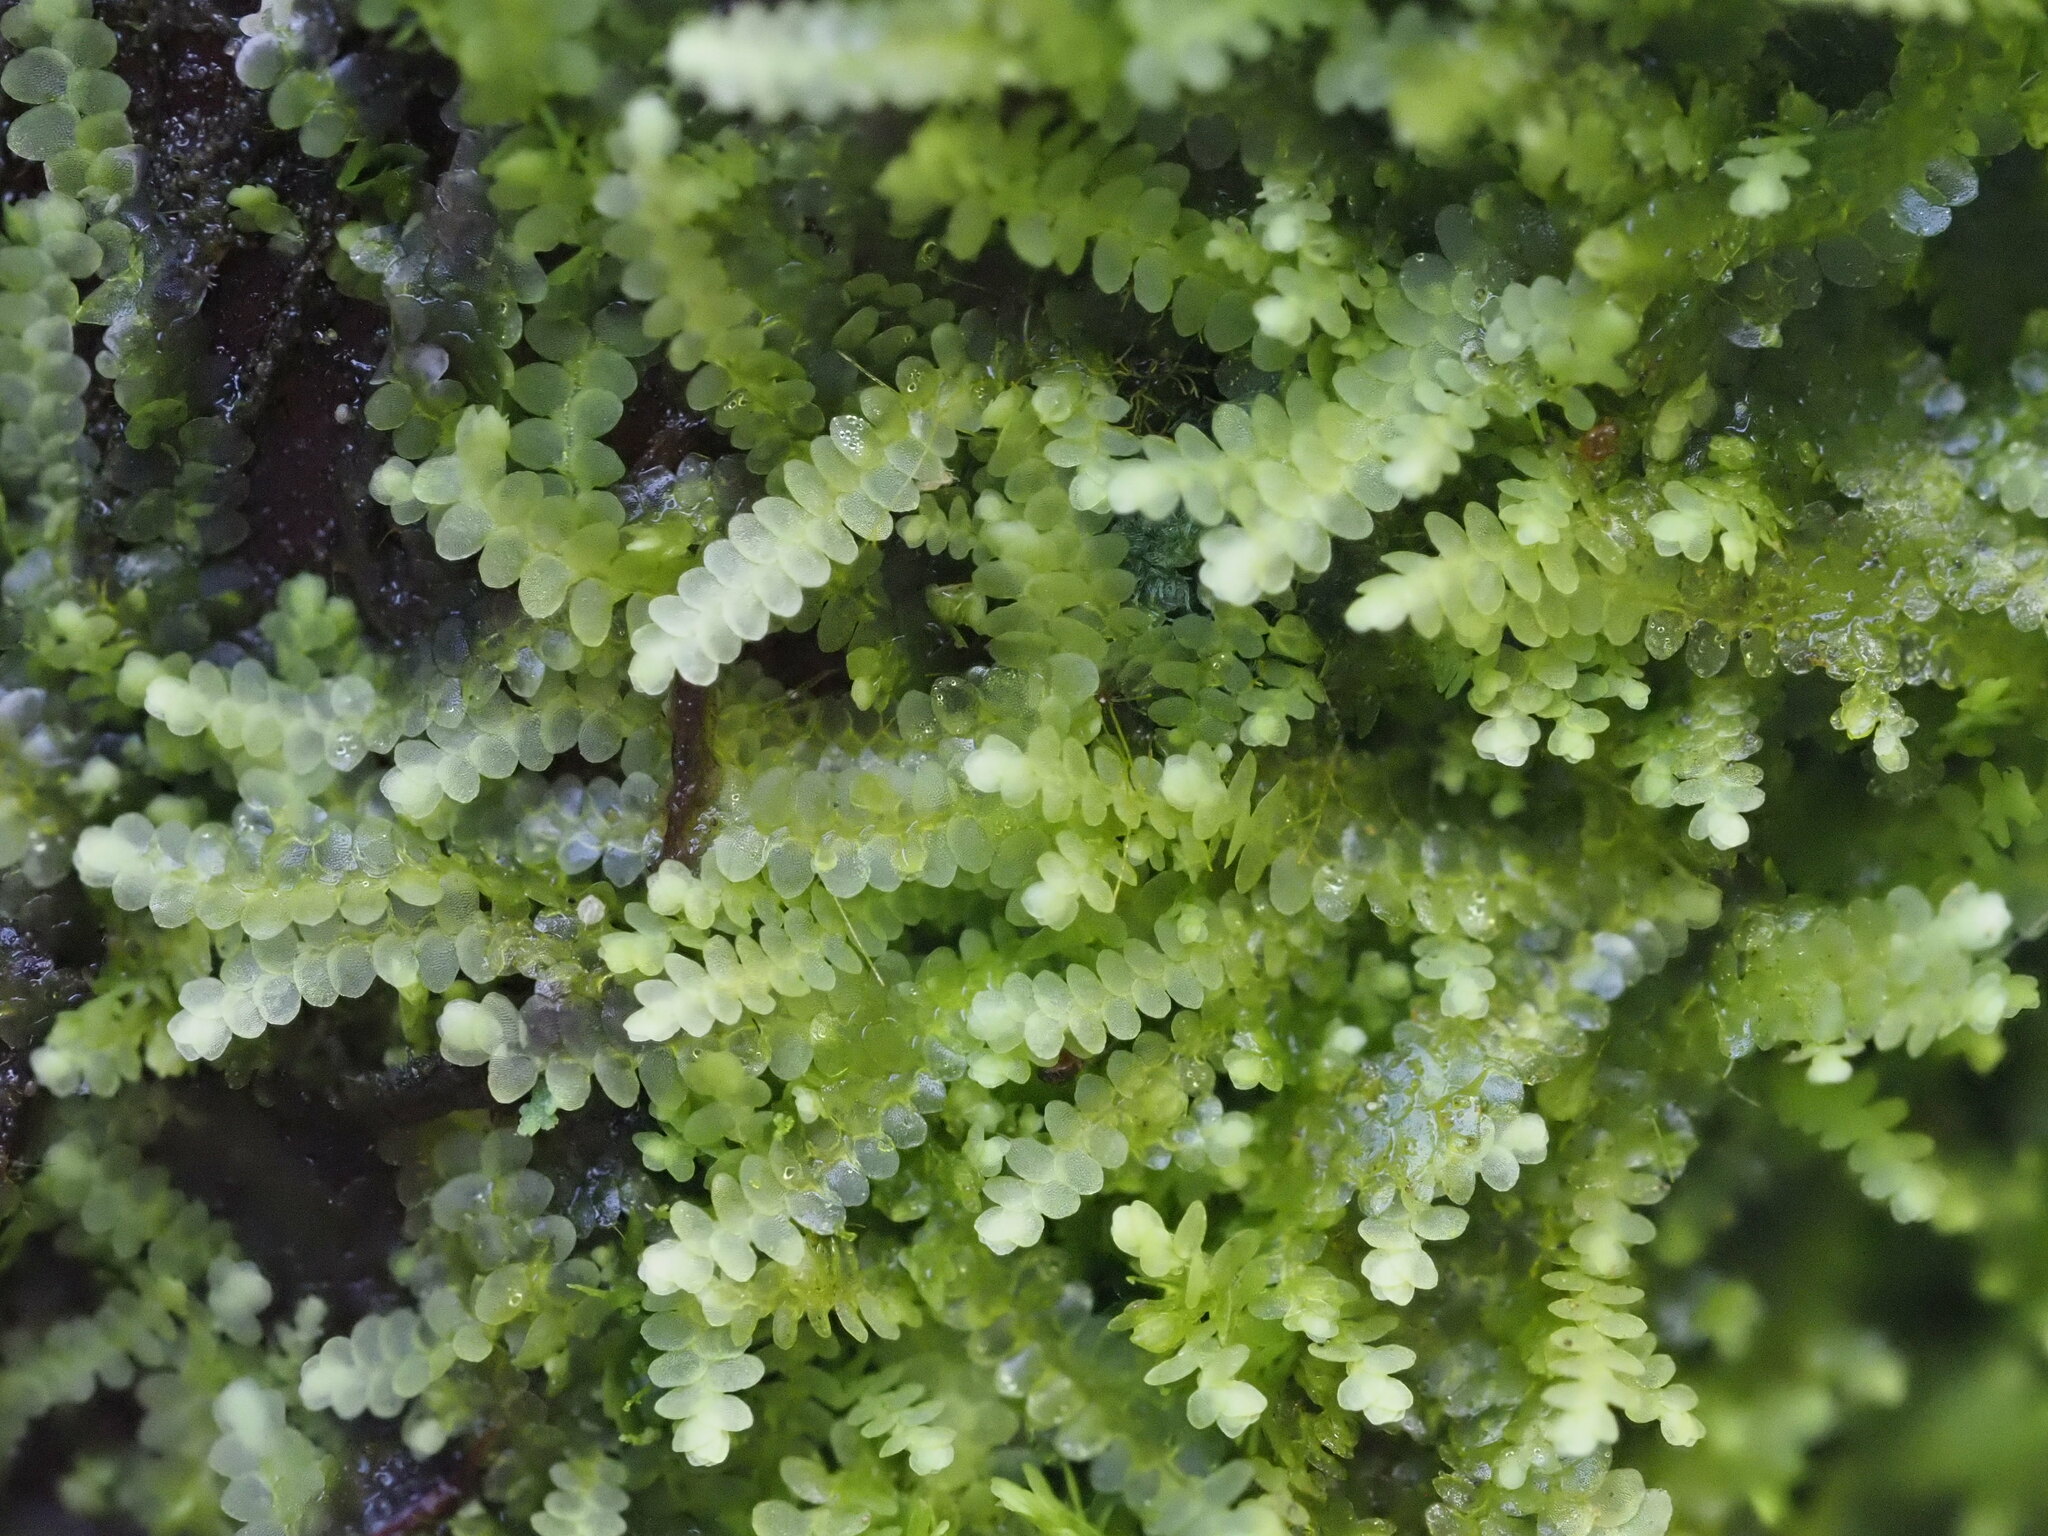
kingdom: Plantae
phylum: Marchantiophyta
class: Jungermanniopsida
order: Porellales
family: Lejeuneaceae
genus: Lejeunea
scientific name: Lejeunea flava
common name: Yellow pouncewort
